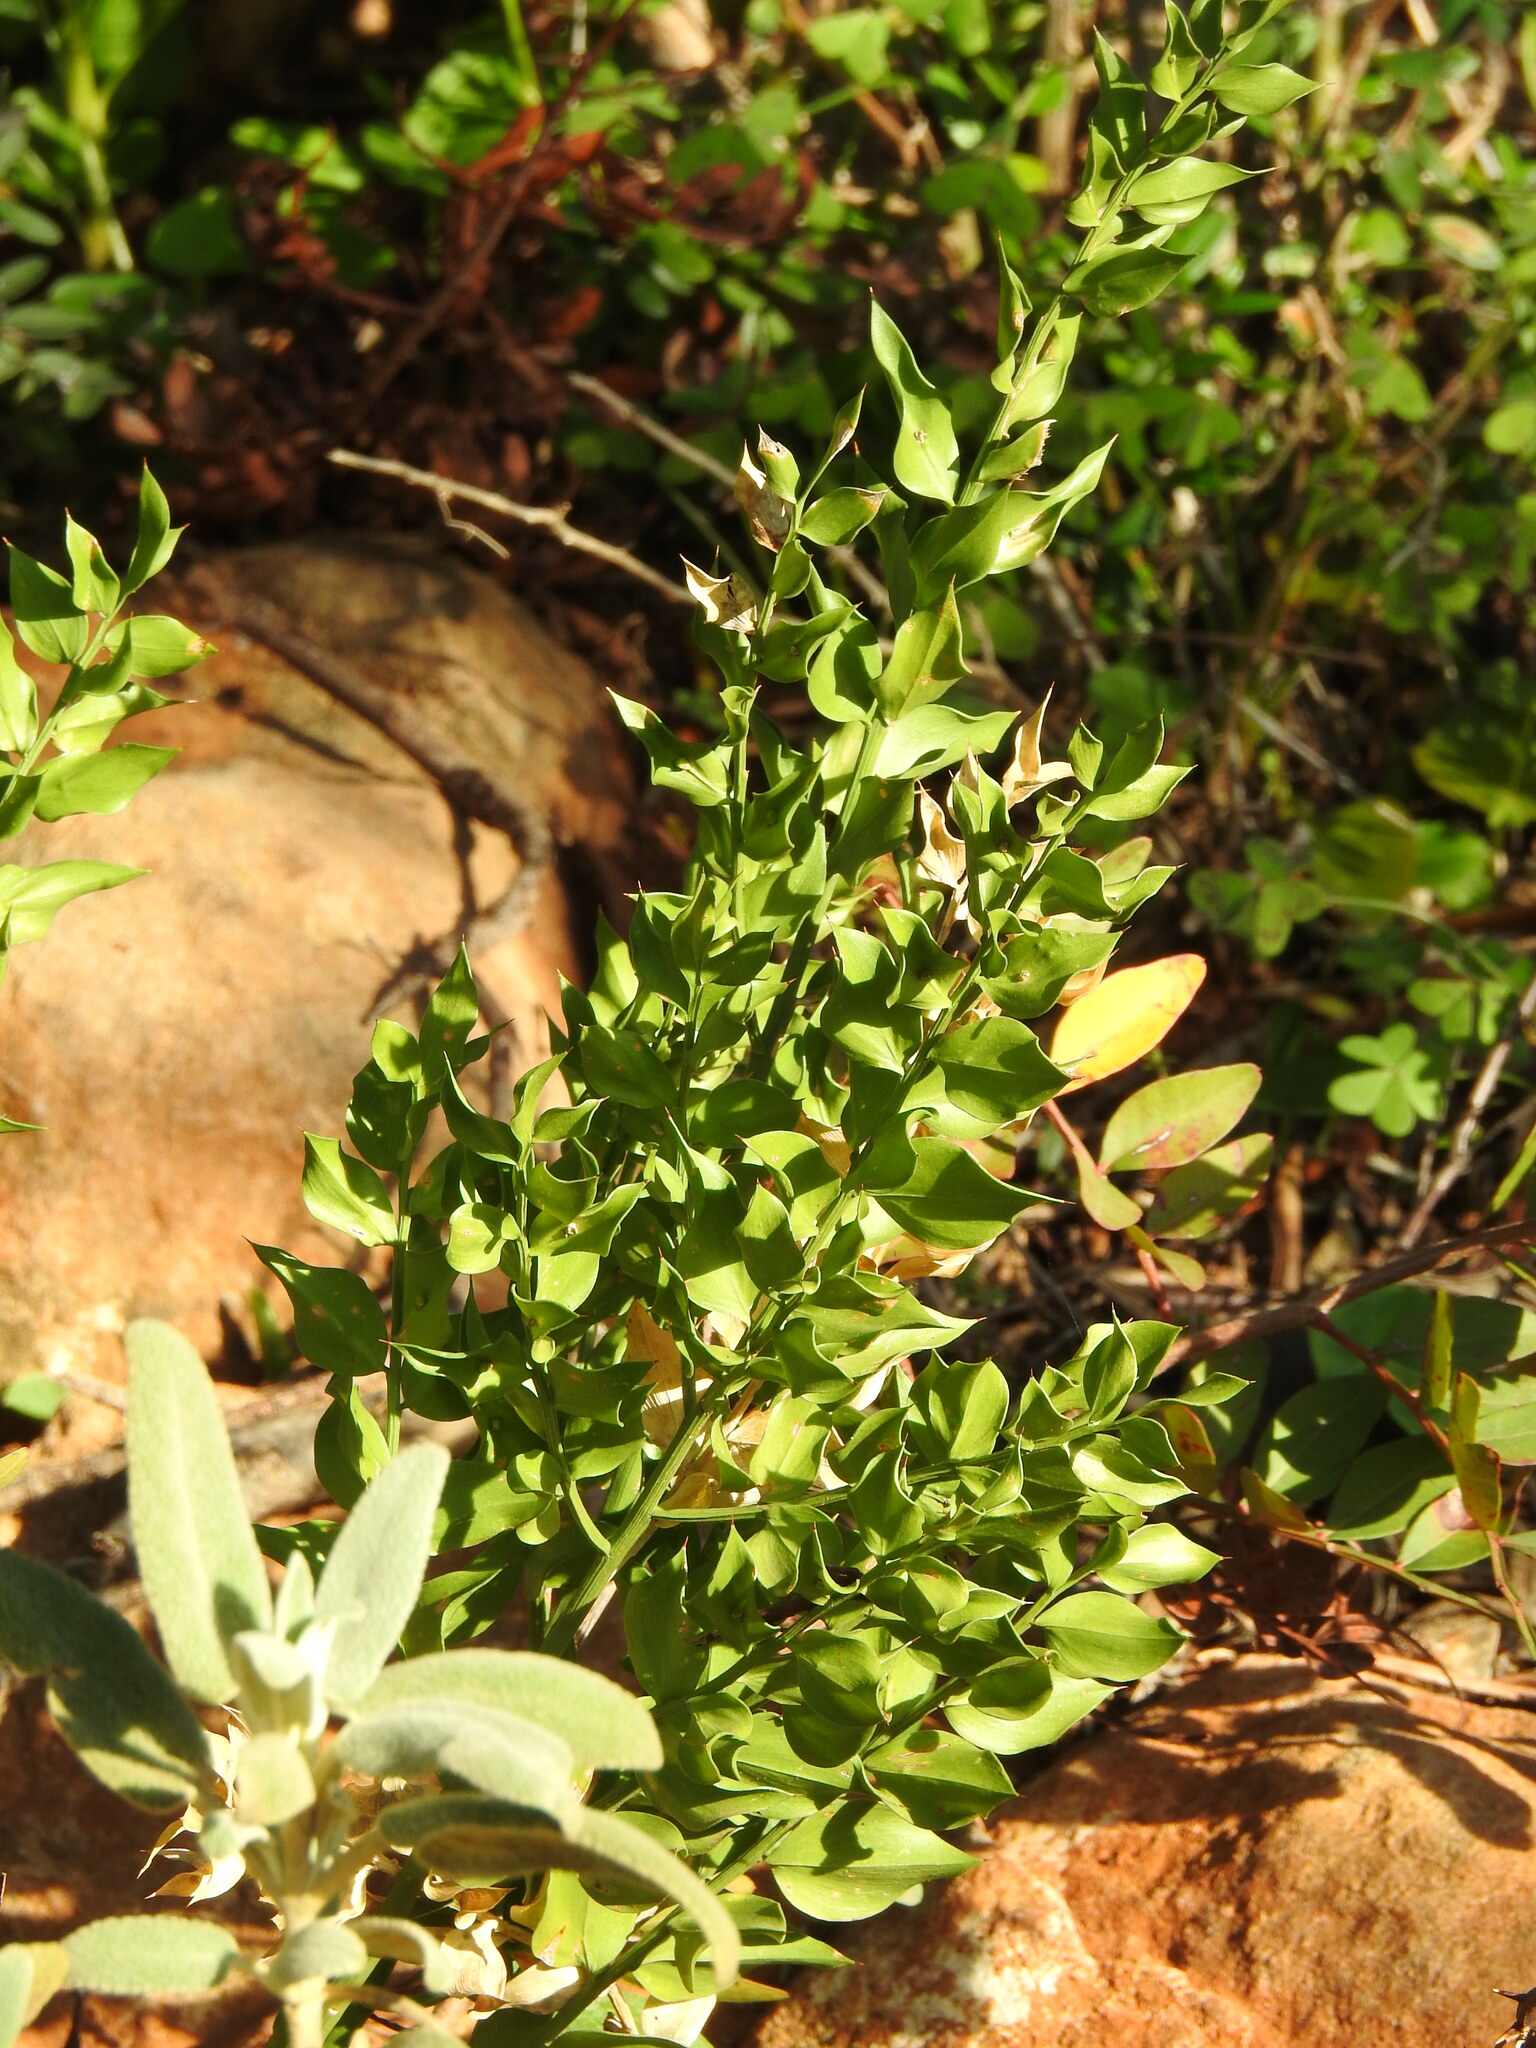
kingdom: Plantae
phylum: Tracheophyta
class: Liliopsida
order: Asparagales
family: Asparagaceae
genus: Ruscus
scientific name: Ruscus aculeatus
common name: Butcher's-broom
